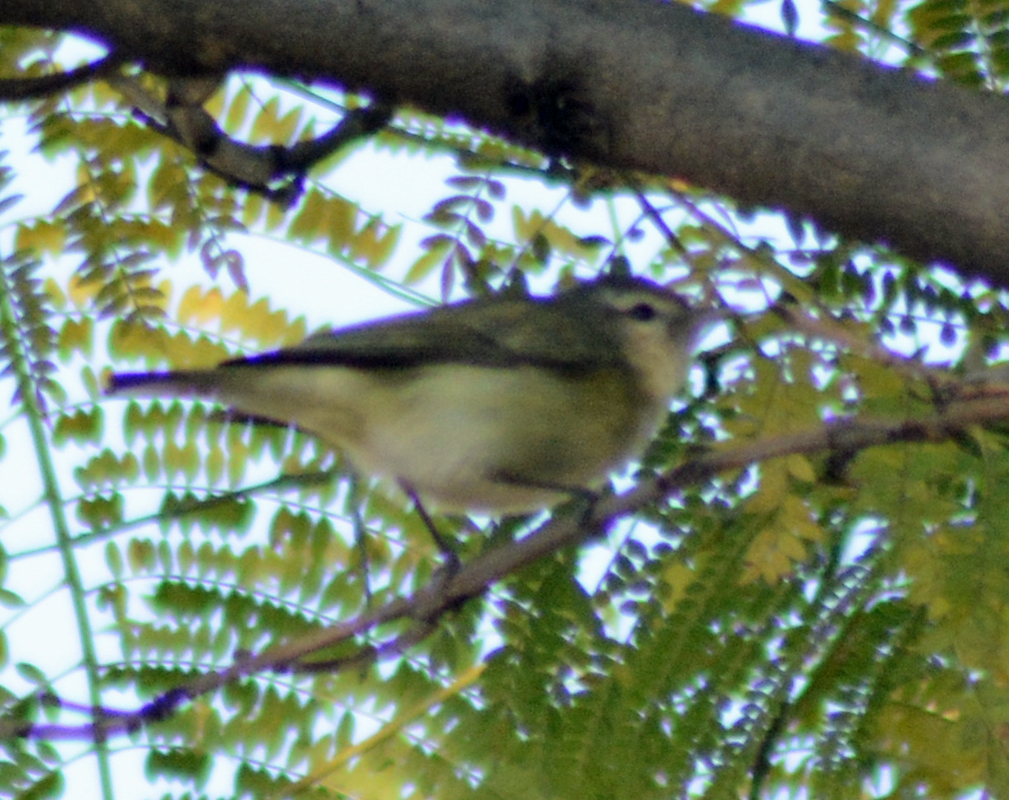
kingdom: Animalia
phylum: Chordata
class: Aves
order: Passeriformes
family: Vireonidae
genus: Vireo
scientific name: Vireo gilvus
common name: Warbling vireo
